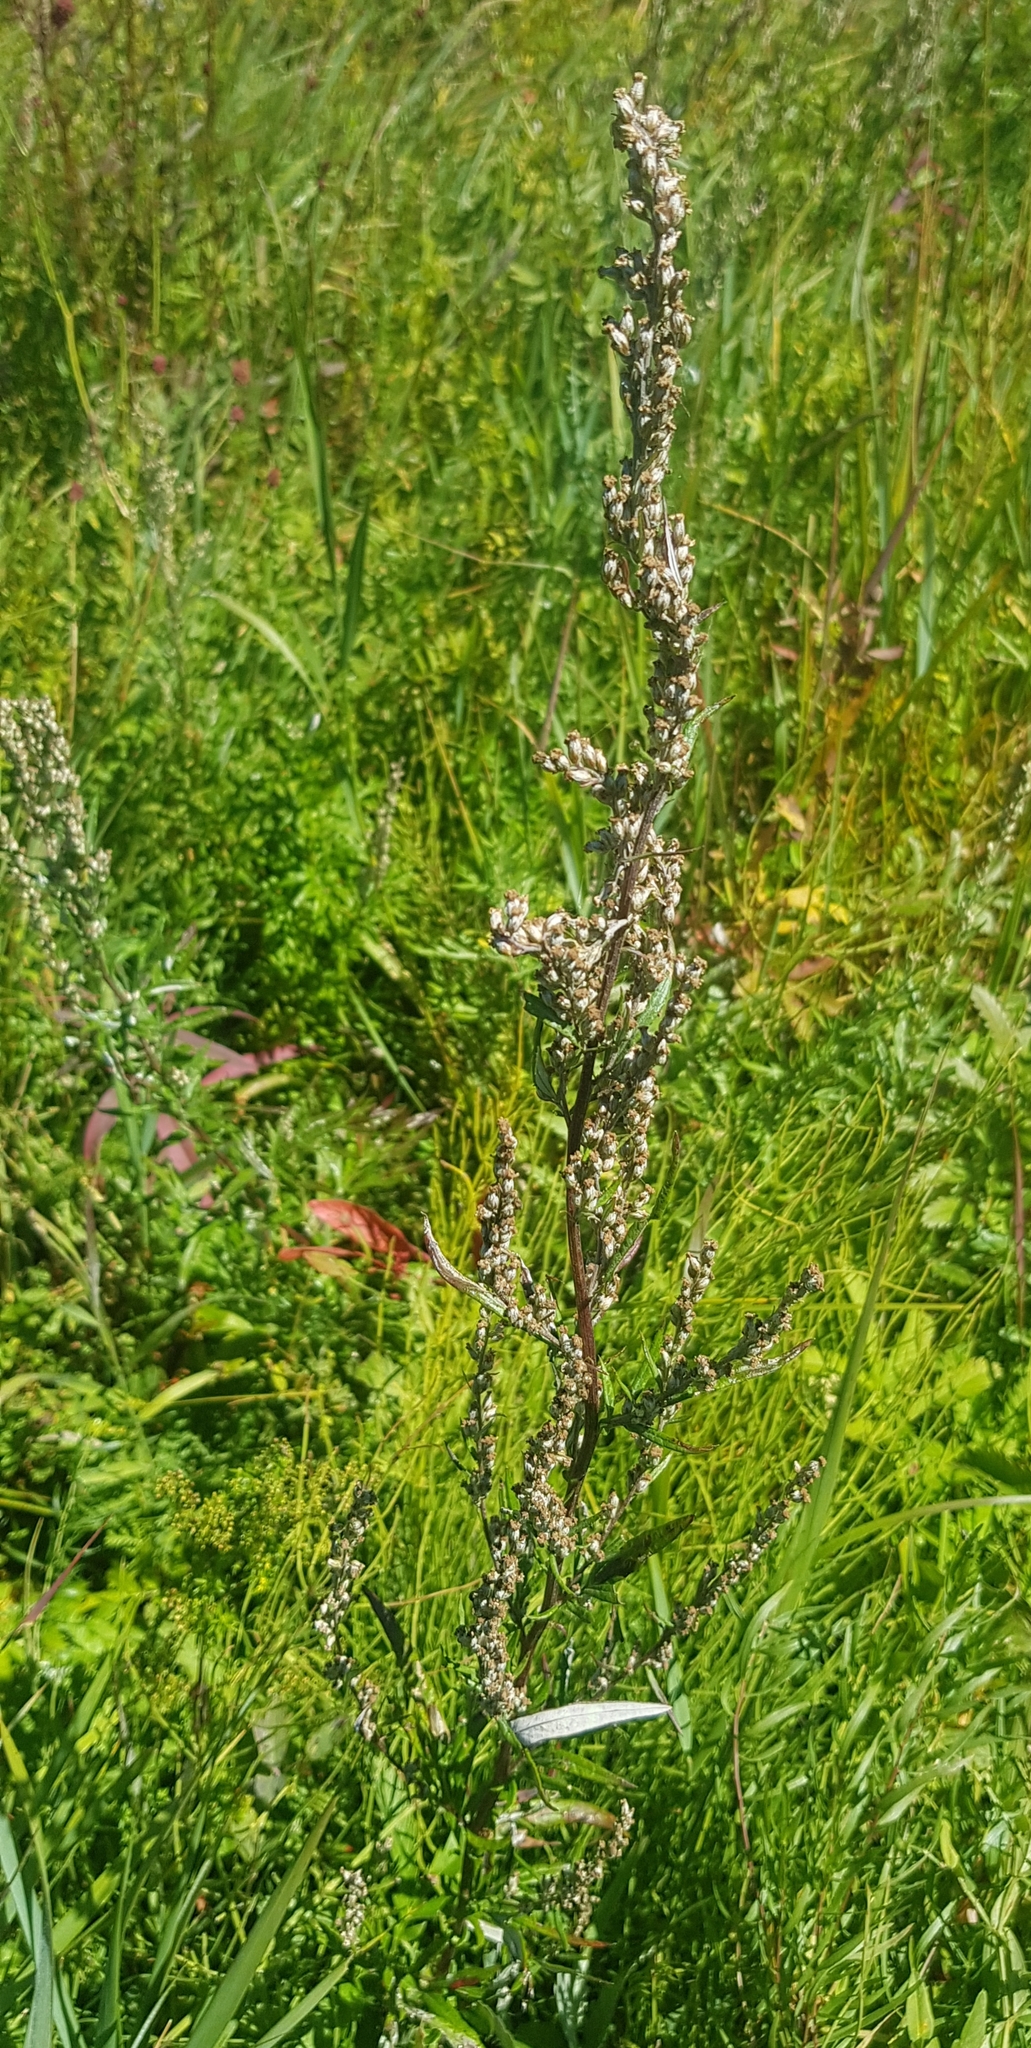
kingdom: Plantae
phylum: Tracheophyta
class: Magnoliopsida
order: Asterales
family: Asteraceae
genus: Artemisia
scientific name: Artemisia vulgaris
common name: Mugwort
